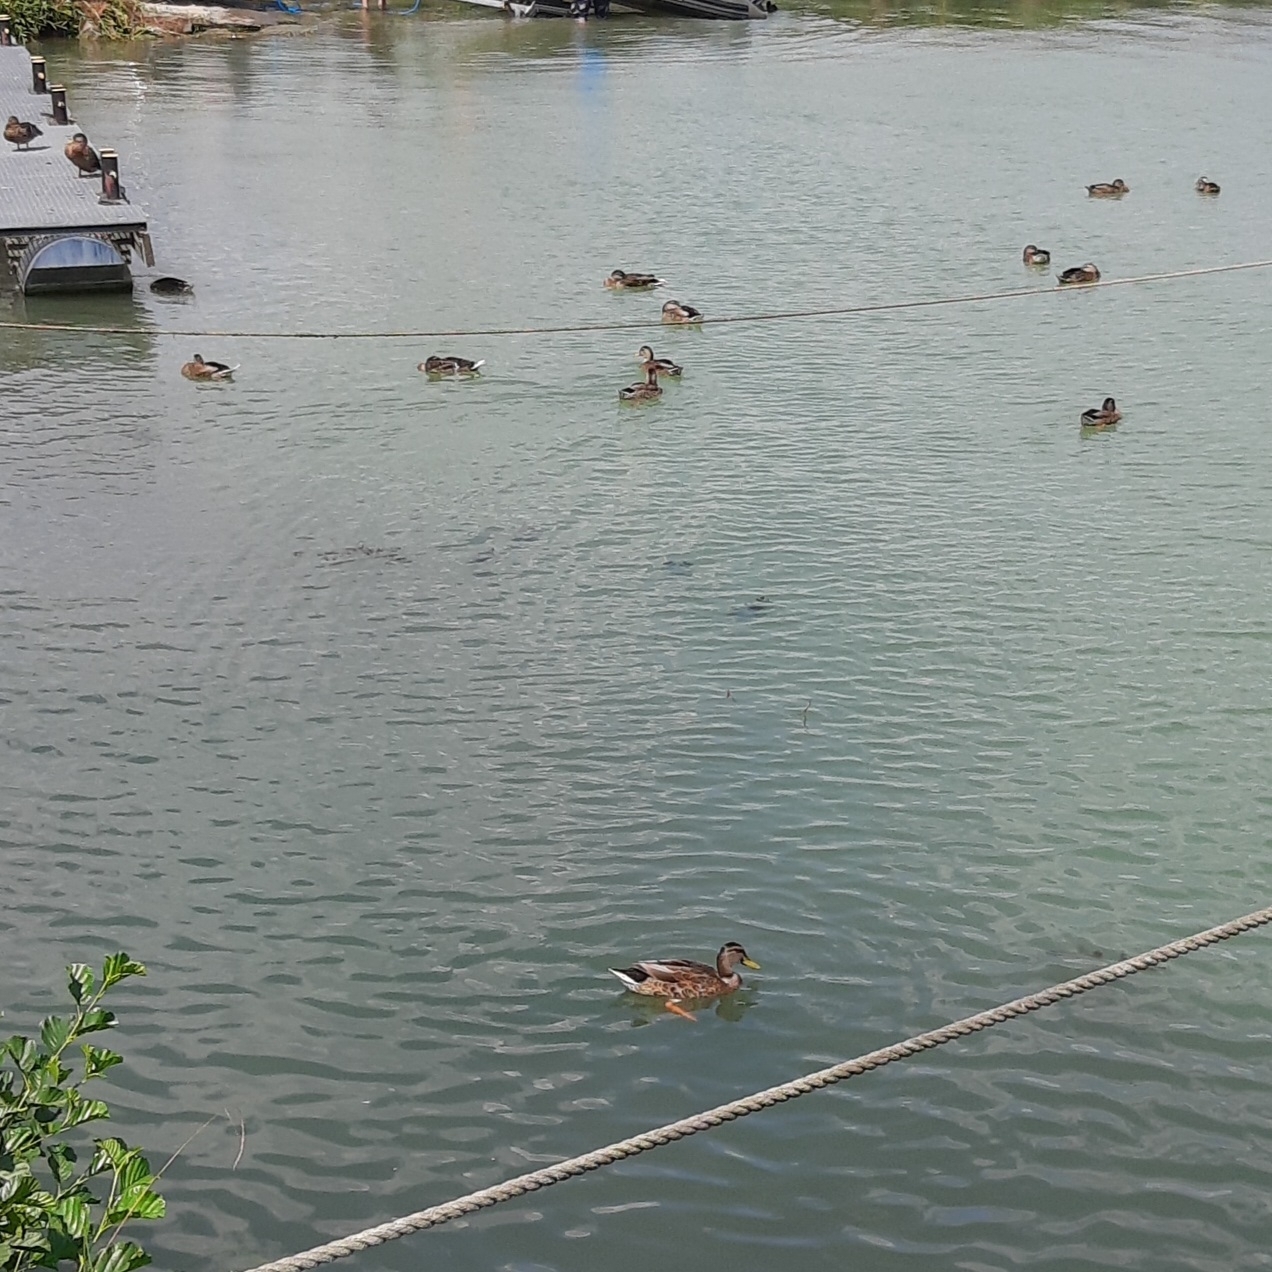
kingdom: Animalia
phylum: Chordata
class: Aves
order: Anseriformes
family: Anatidae
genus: Anas
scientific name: Anas platyrhynchos
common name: Mallard
